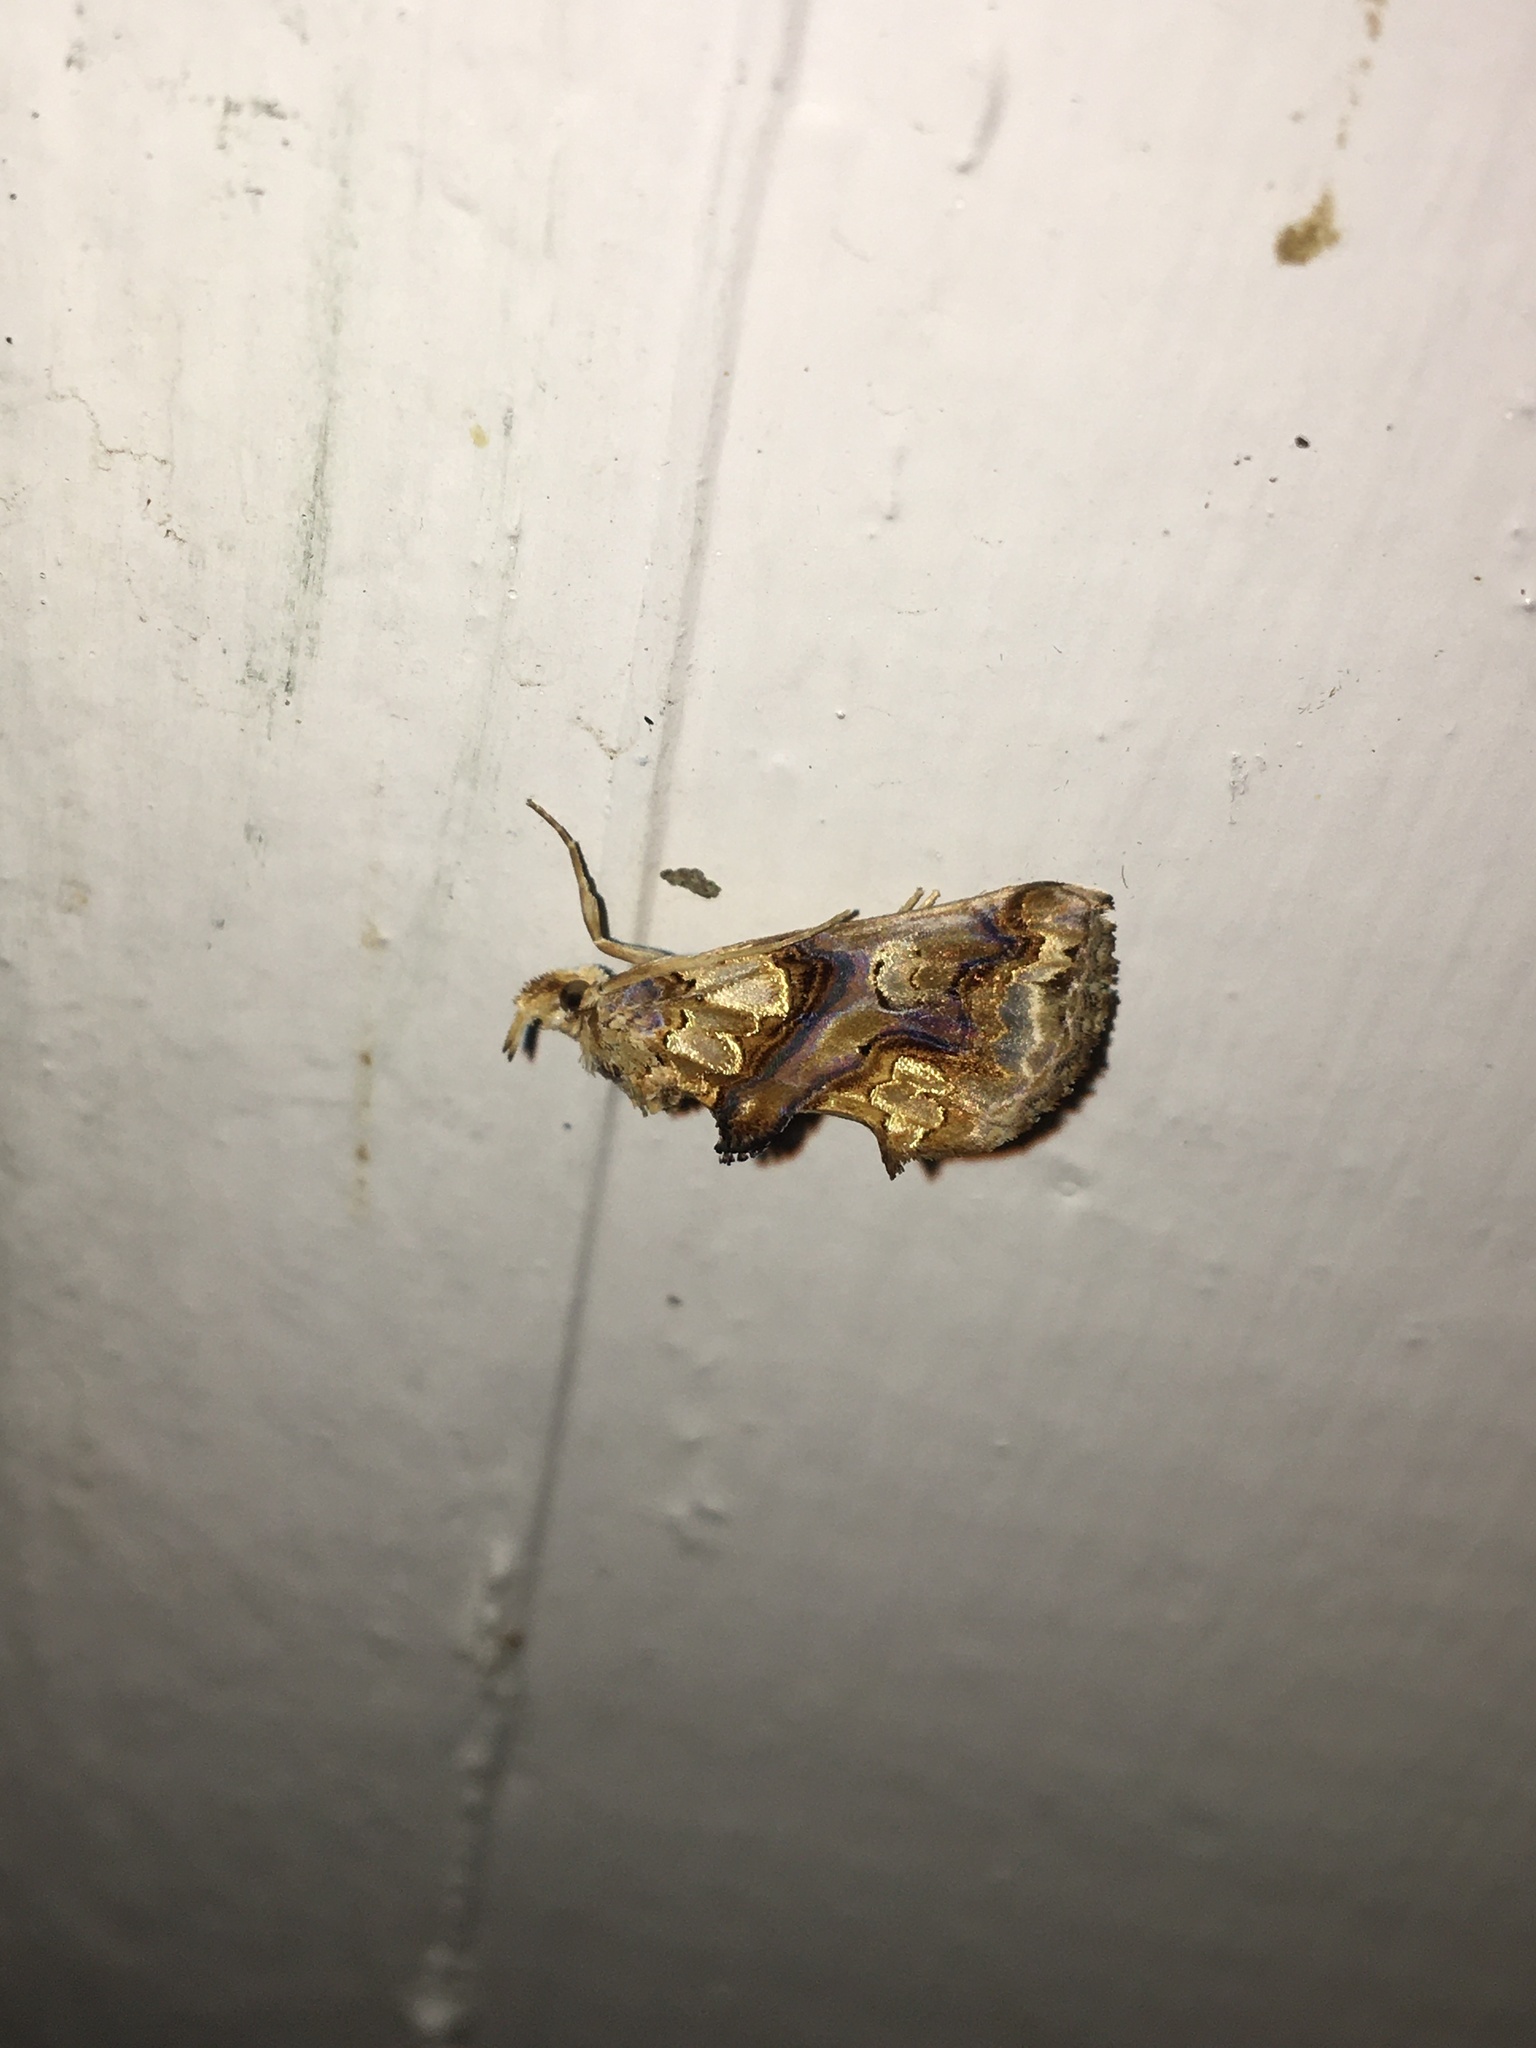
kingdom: Animalia
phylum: Arthropoda
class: Insecta
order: Lepidoptera
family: Erebidae
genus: Plusiodonta
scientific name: Plusiodonta compressipalpis
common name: Moonseed moth
